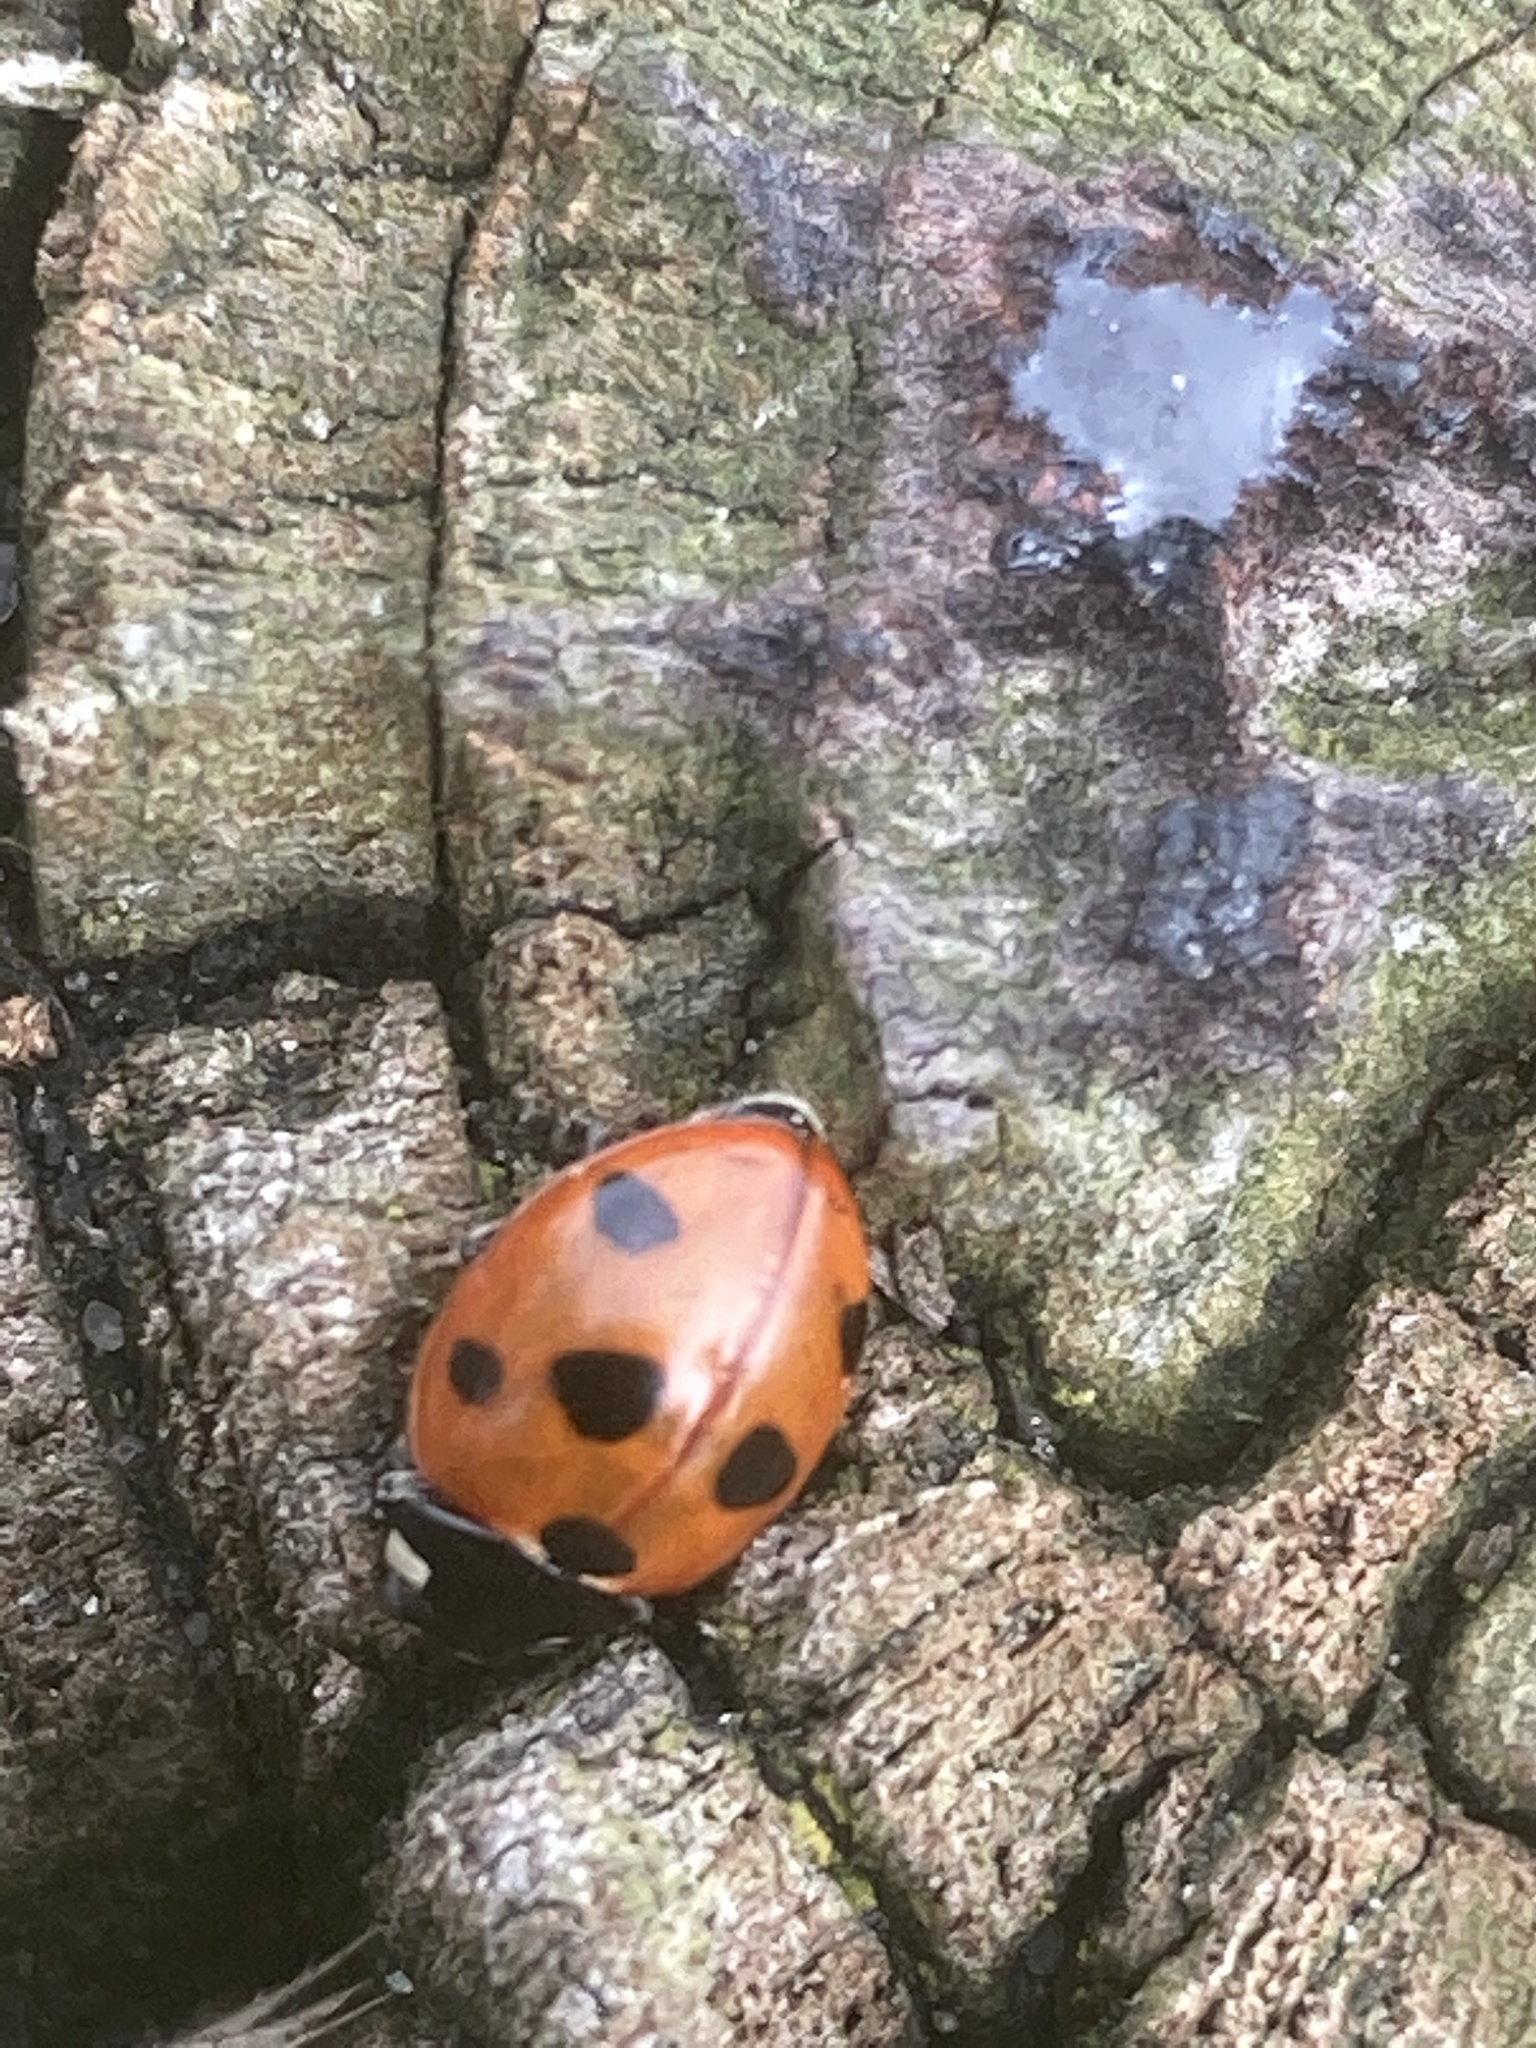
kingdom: Animalia
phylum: Arthropoda
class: Insecta
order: Coleoptera
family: Coccinellidae
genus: Coccinella
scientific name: Coccinella septempunctata
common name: Sevenspotted lady beetle
